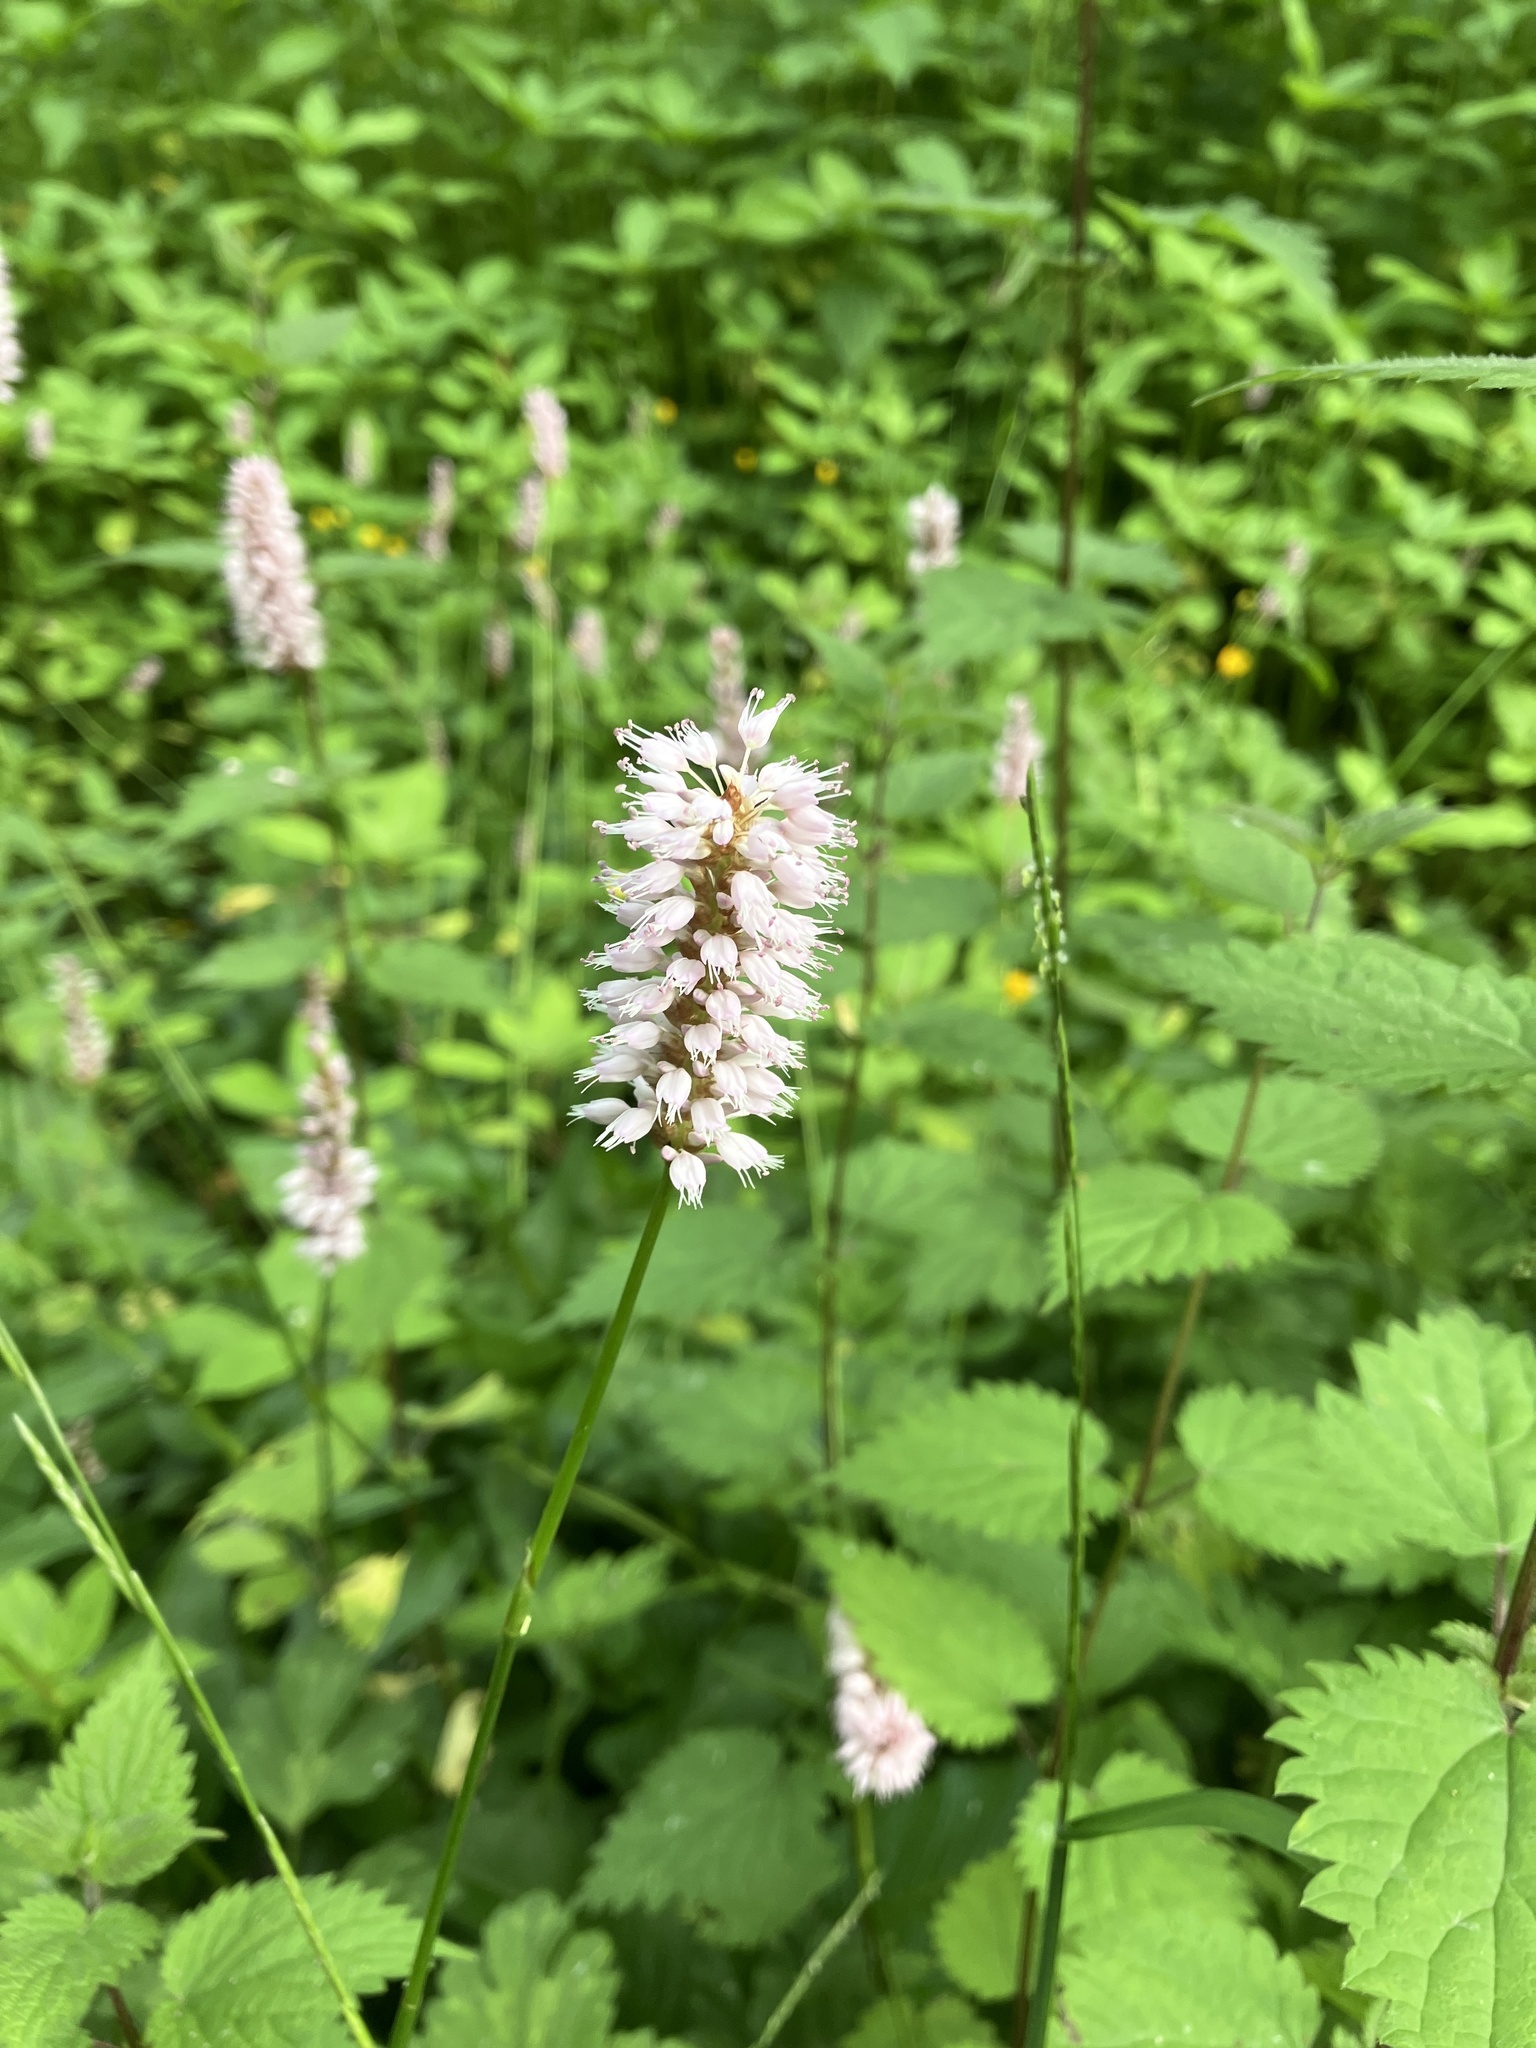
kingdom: Plantae
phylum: Tracheophyta
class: Magnoliopsida
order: Caryophyllales
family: Polygonaceae
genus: Bistorta
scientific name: Bistorta officinalis
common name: Common bistort
